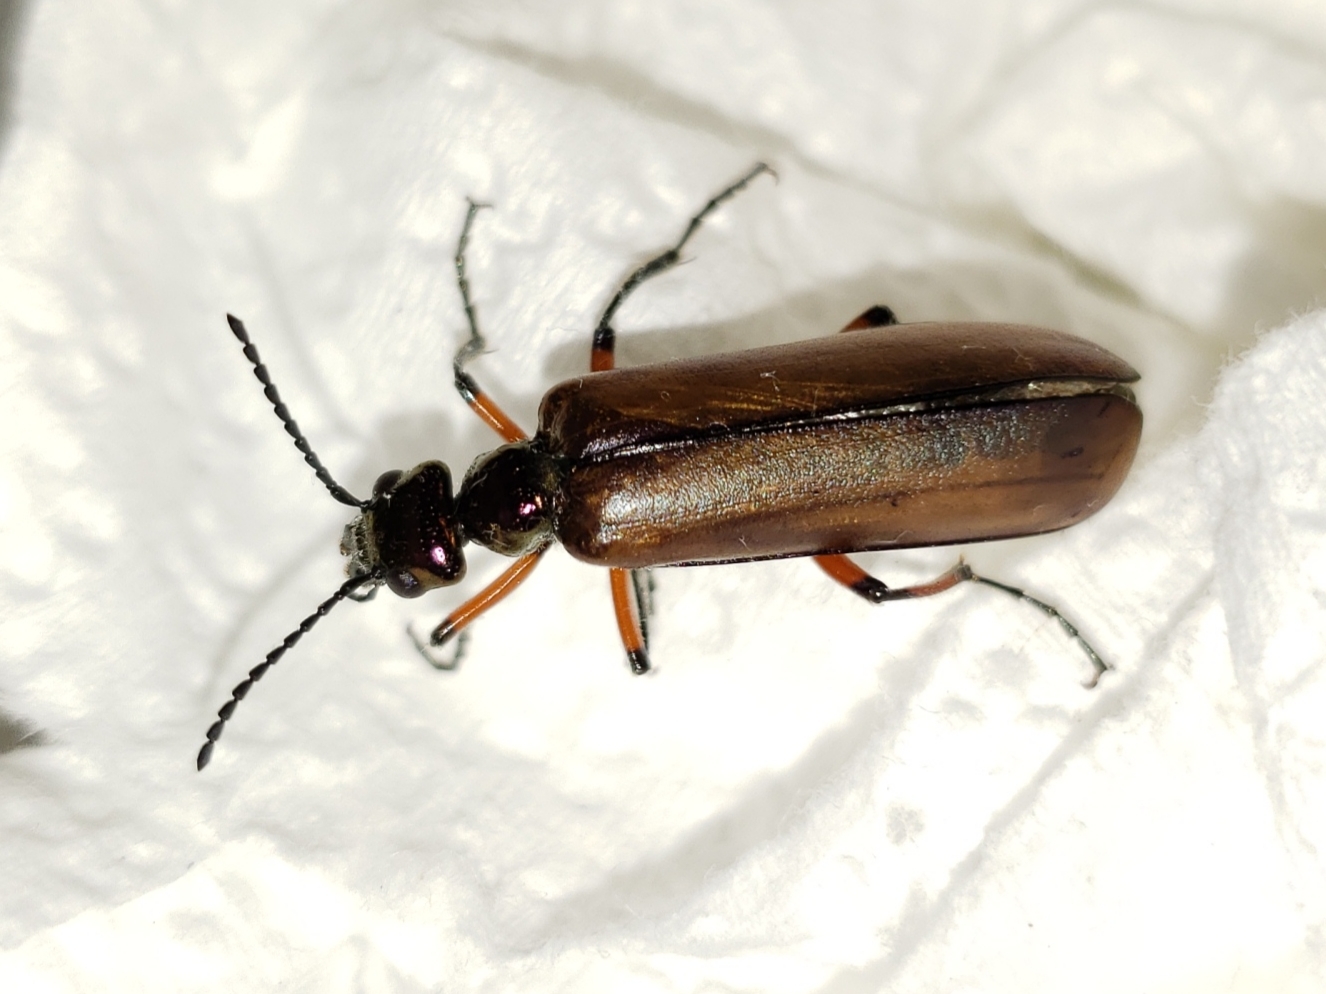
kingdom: Animalia
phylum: Arthropoda
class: Insecta
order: Coleoptera
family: Meloidae
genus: Lytta
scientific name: Lytta polita
